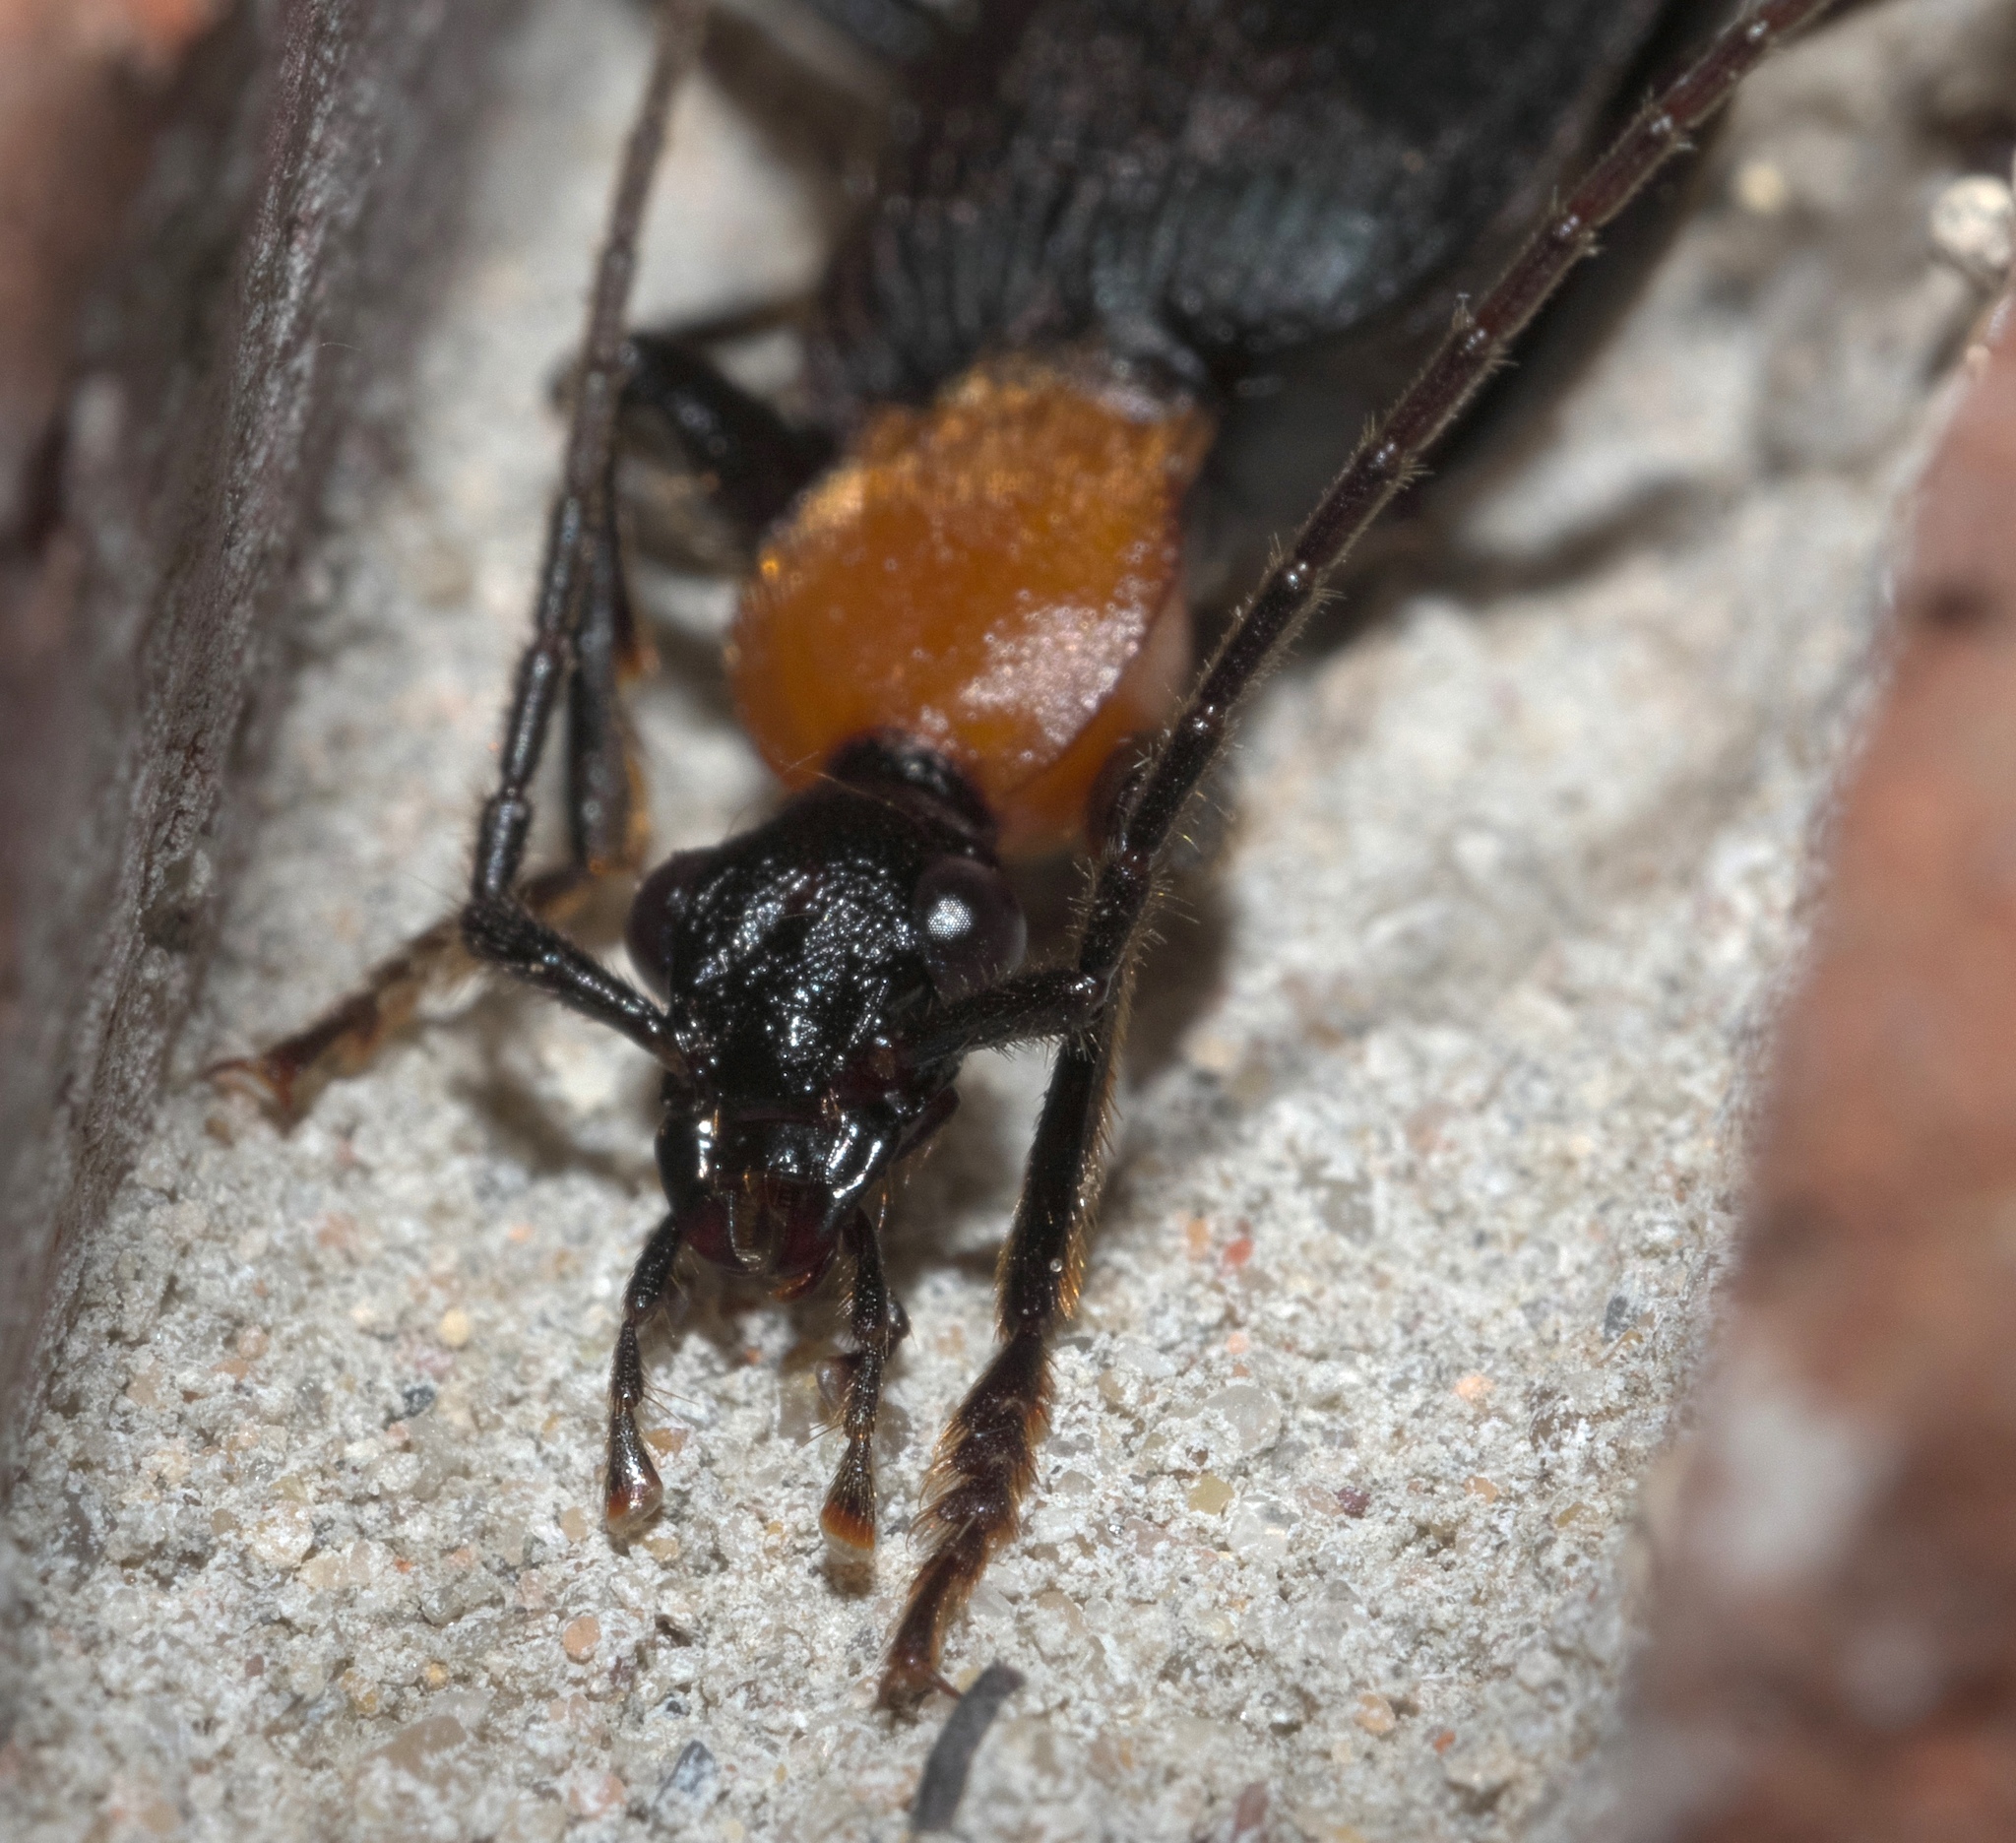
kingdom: Animalia
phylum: Arthropoda
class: Insecta
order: Coleoptera
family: Carabidae
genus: Galerita
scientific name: Galerita mexicana
